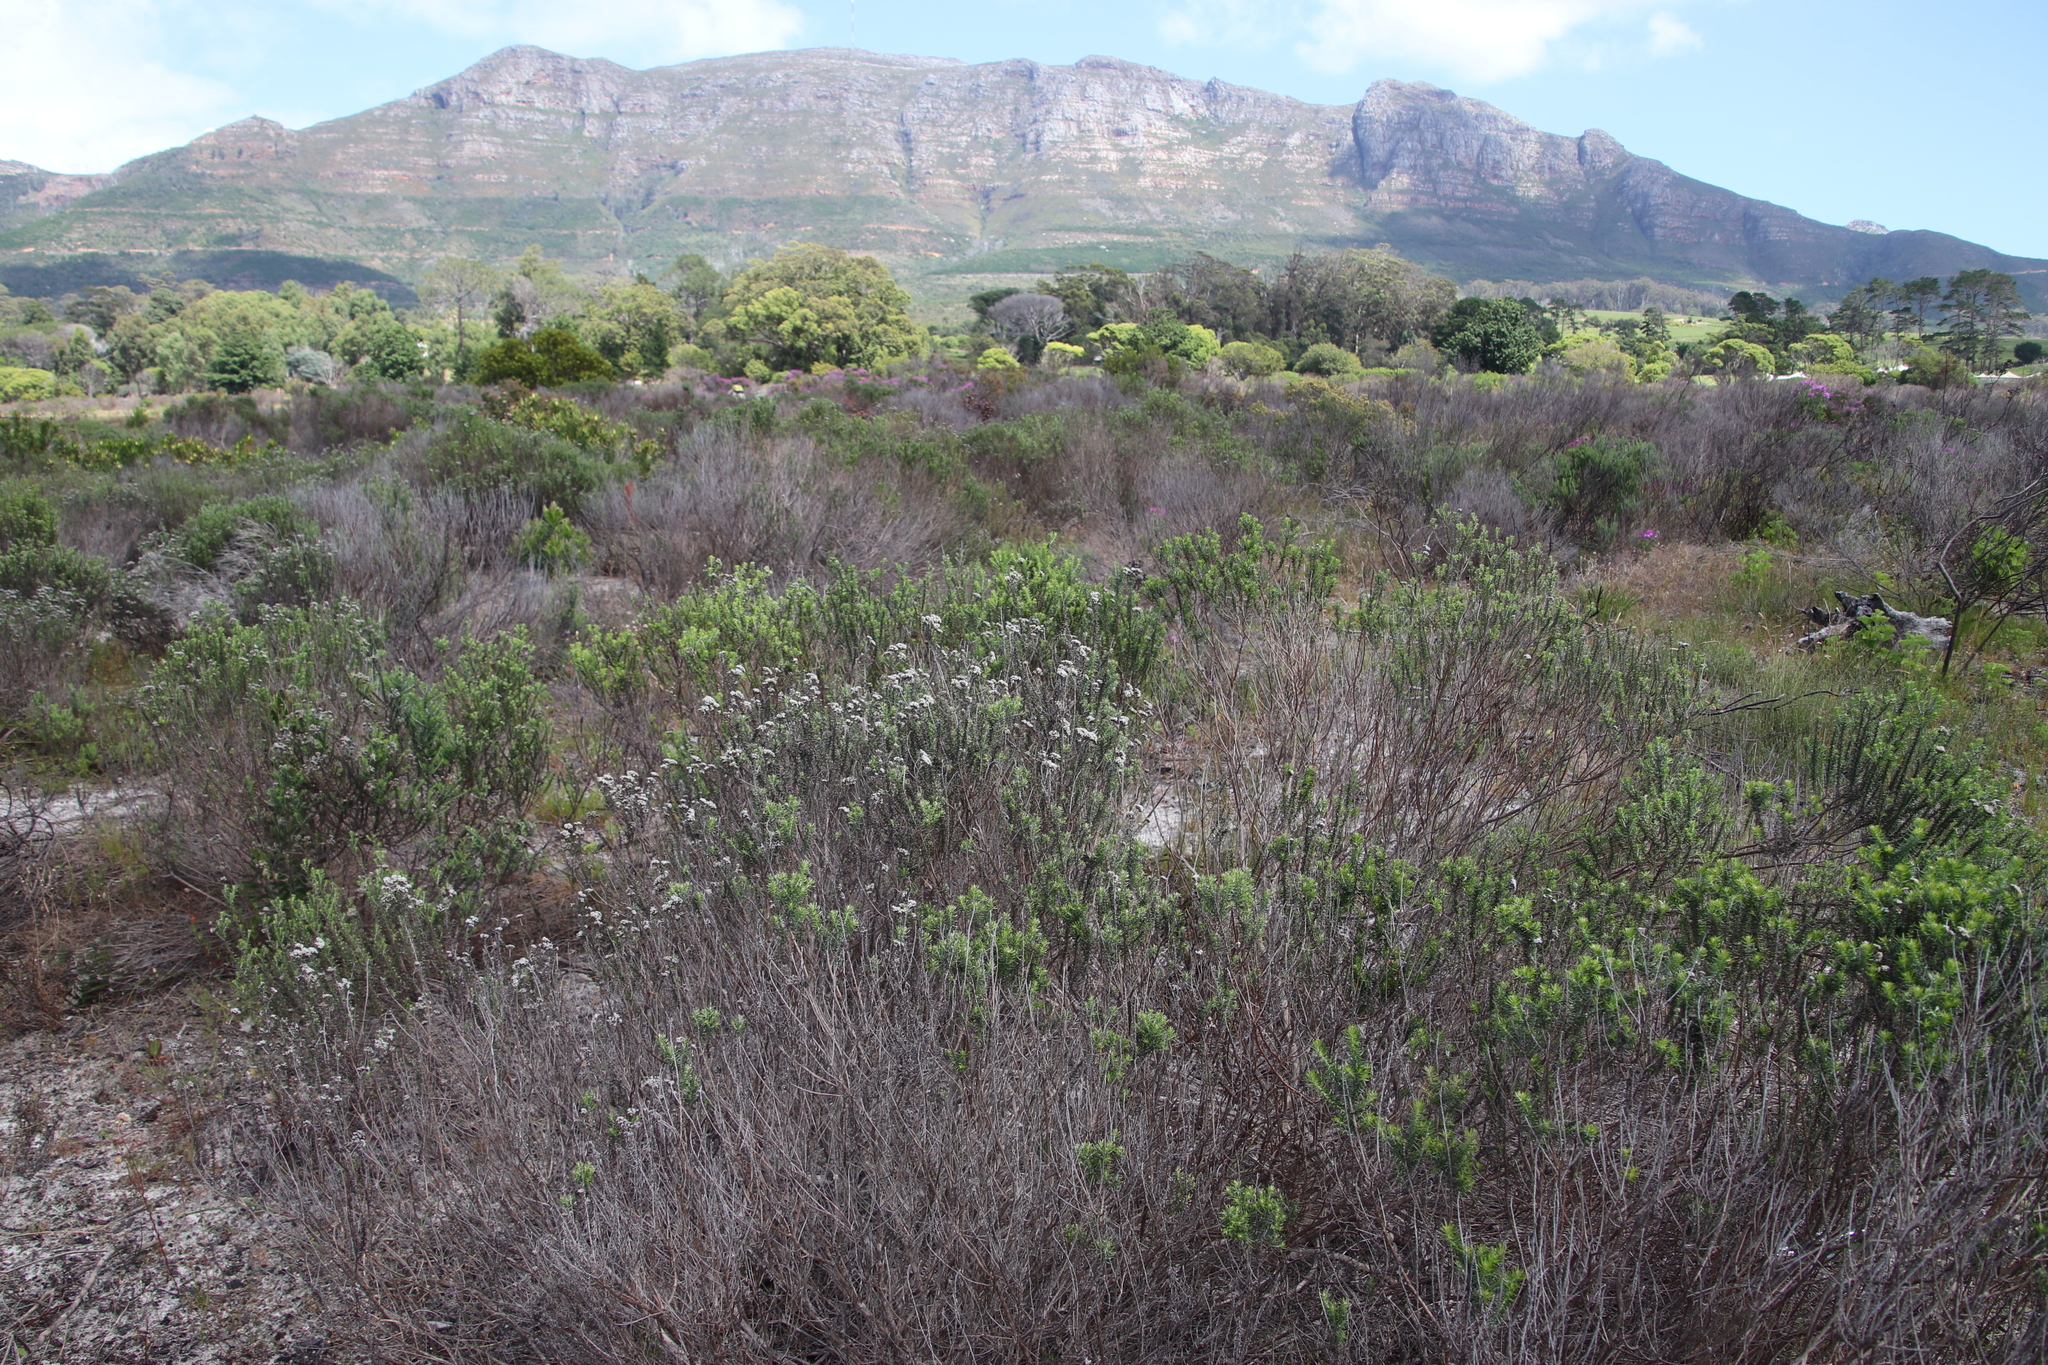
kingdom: Plantae
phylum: Tracheophyta
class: Magnoliopsida
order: Asterales
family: Asteraceae
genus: Metalasia
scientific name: Metalasia densa
